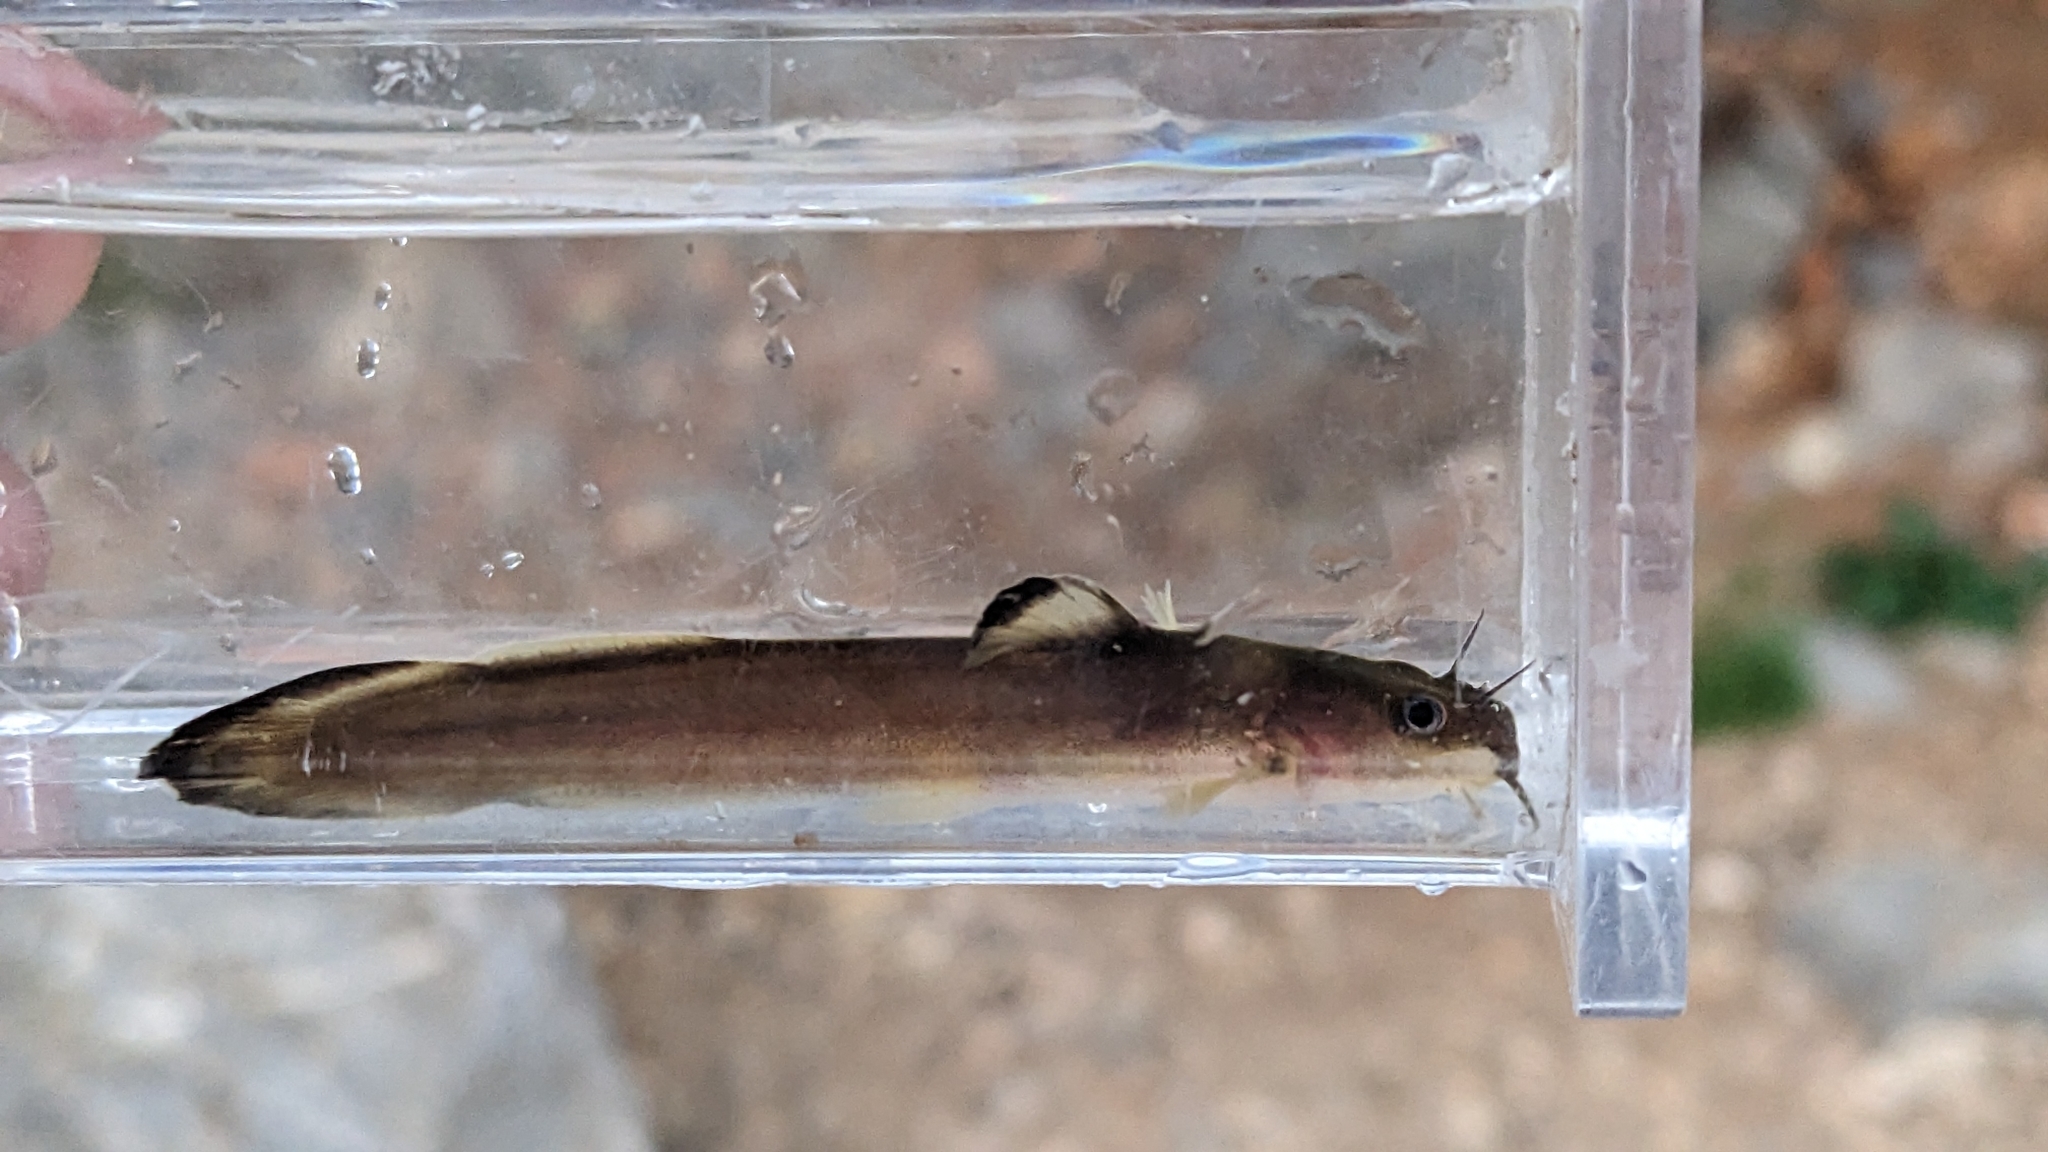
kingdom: Animalia
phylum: Chordata
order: Siluriformes
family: Ictaluridae
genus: Noturus
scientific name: Noturus exilis
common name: Slender madtom
